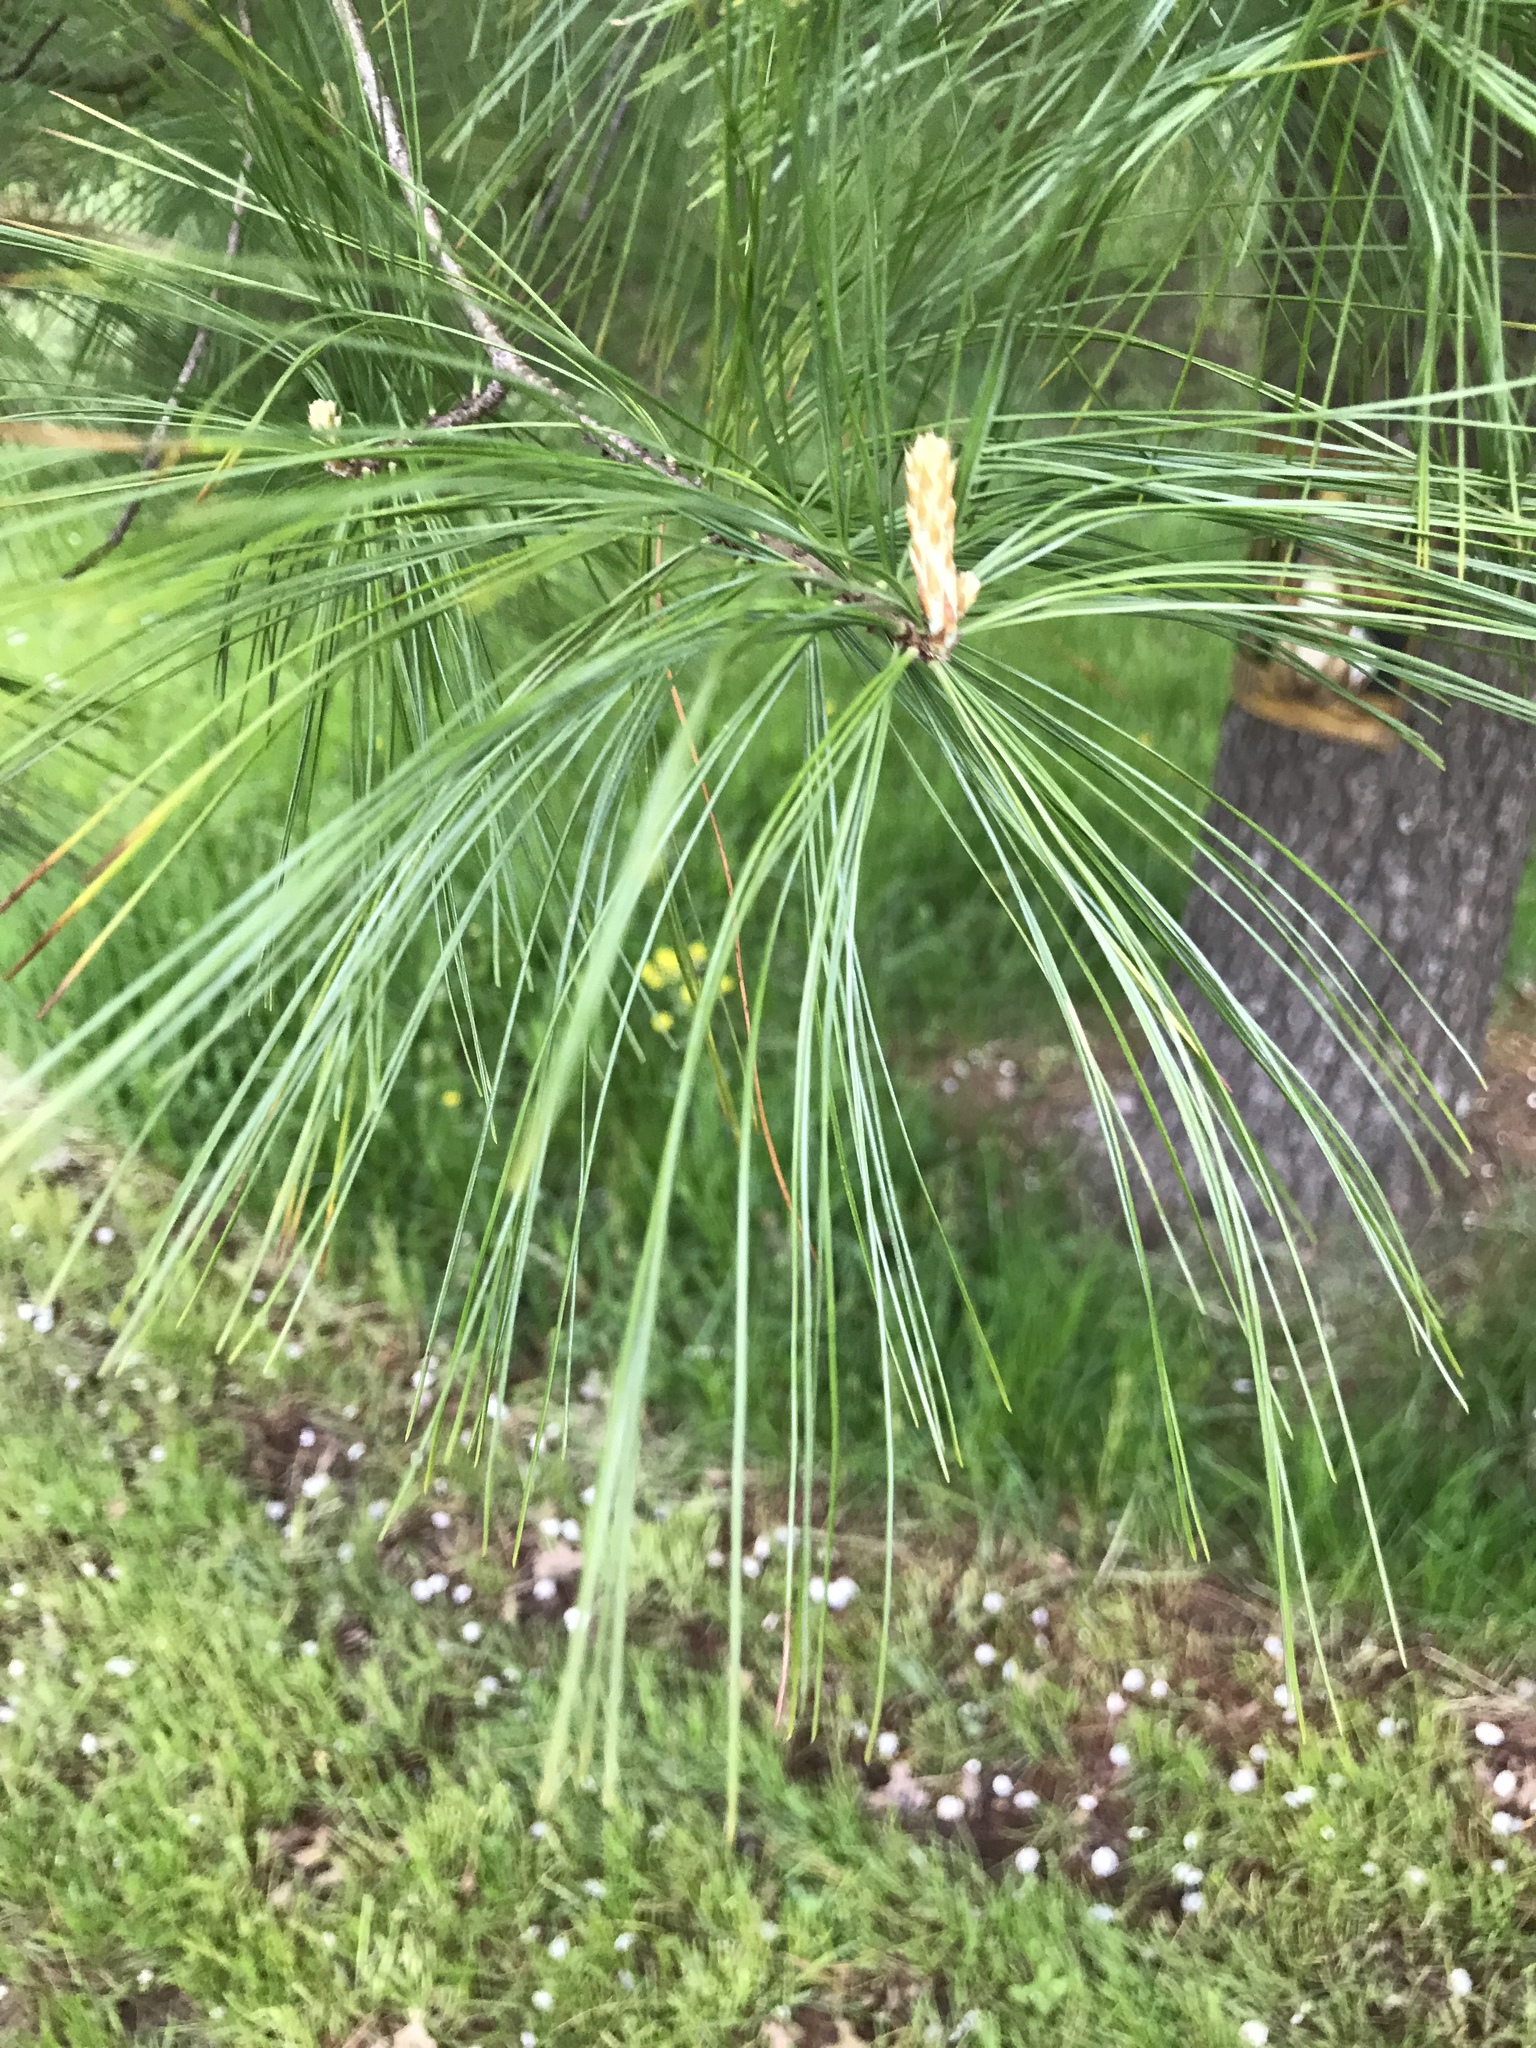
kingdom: Plantae
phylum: Tracheophyta
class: Pinopsida
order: Pinales
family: Pinaceae
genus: Pinus
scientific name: Pinus strobus
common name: Weymouth pine
